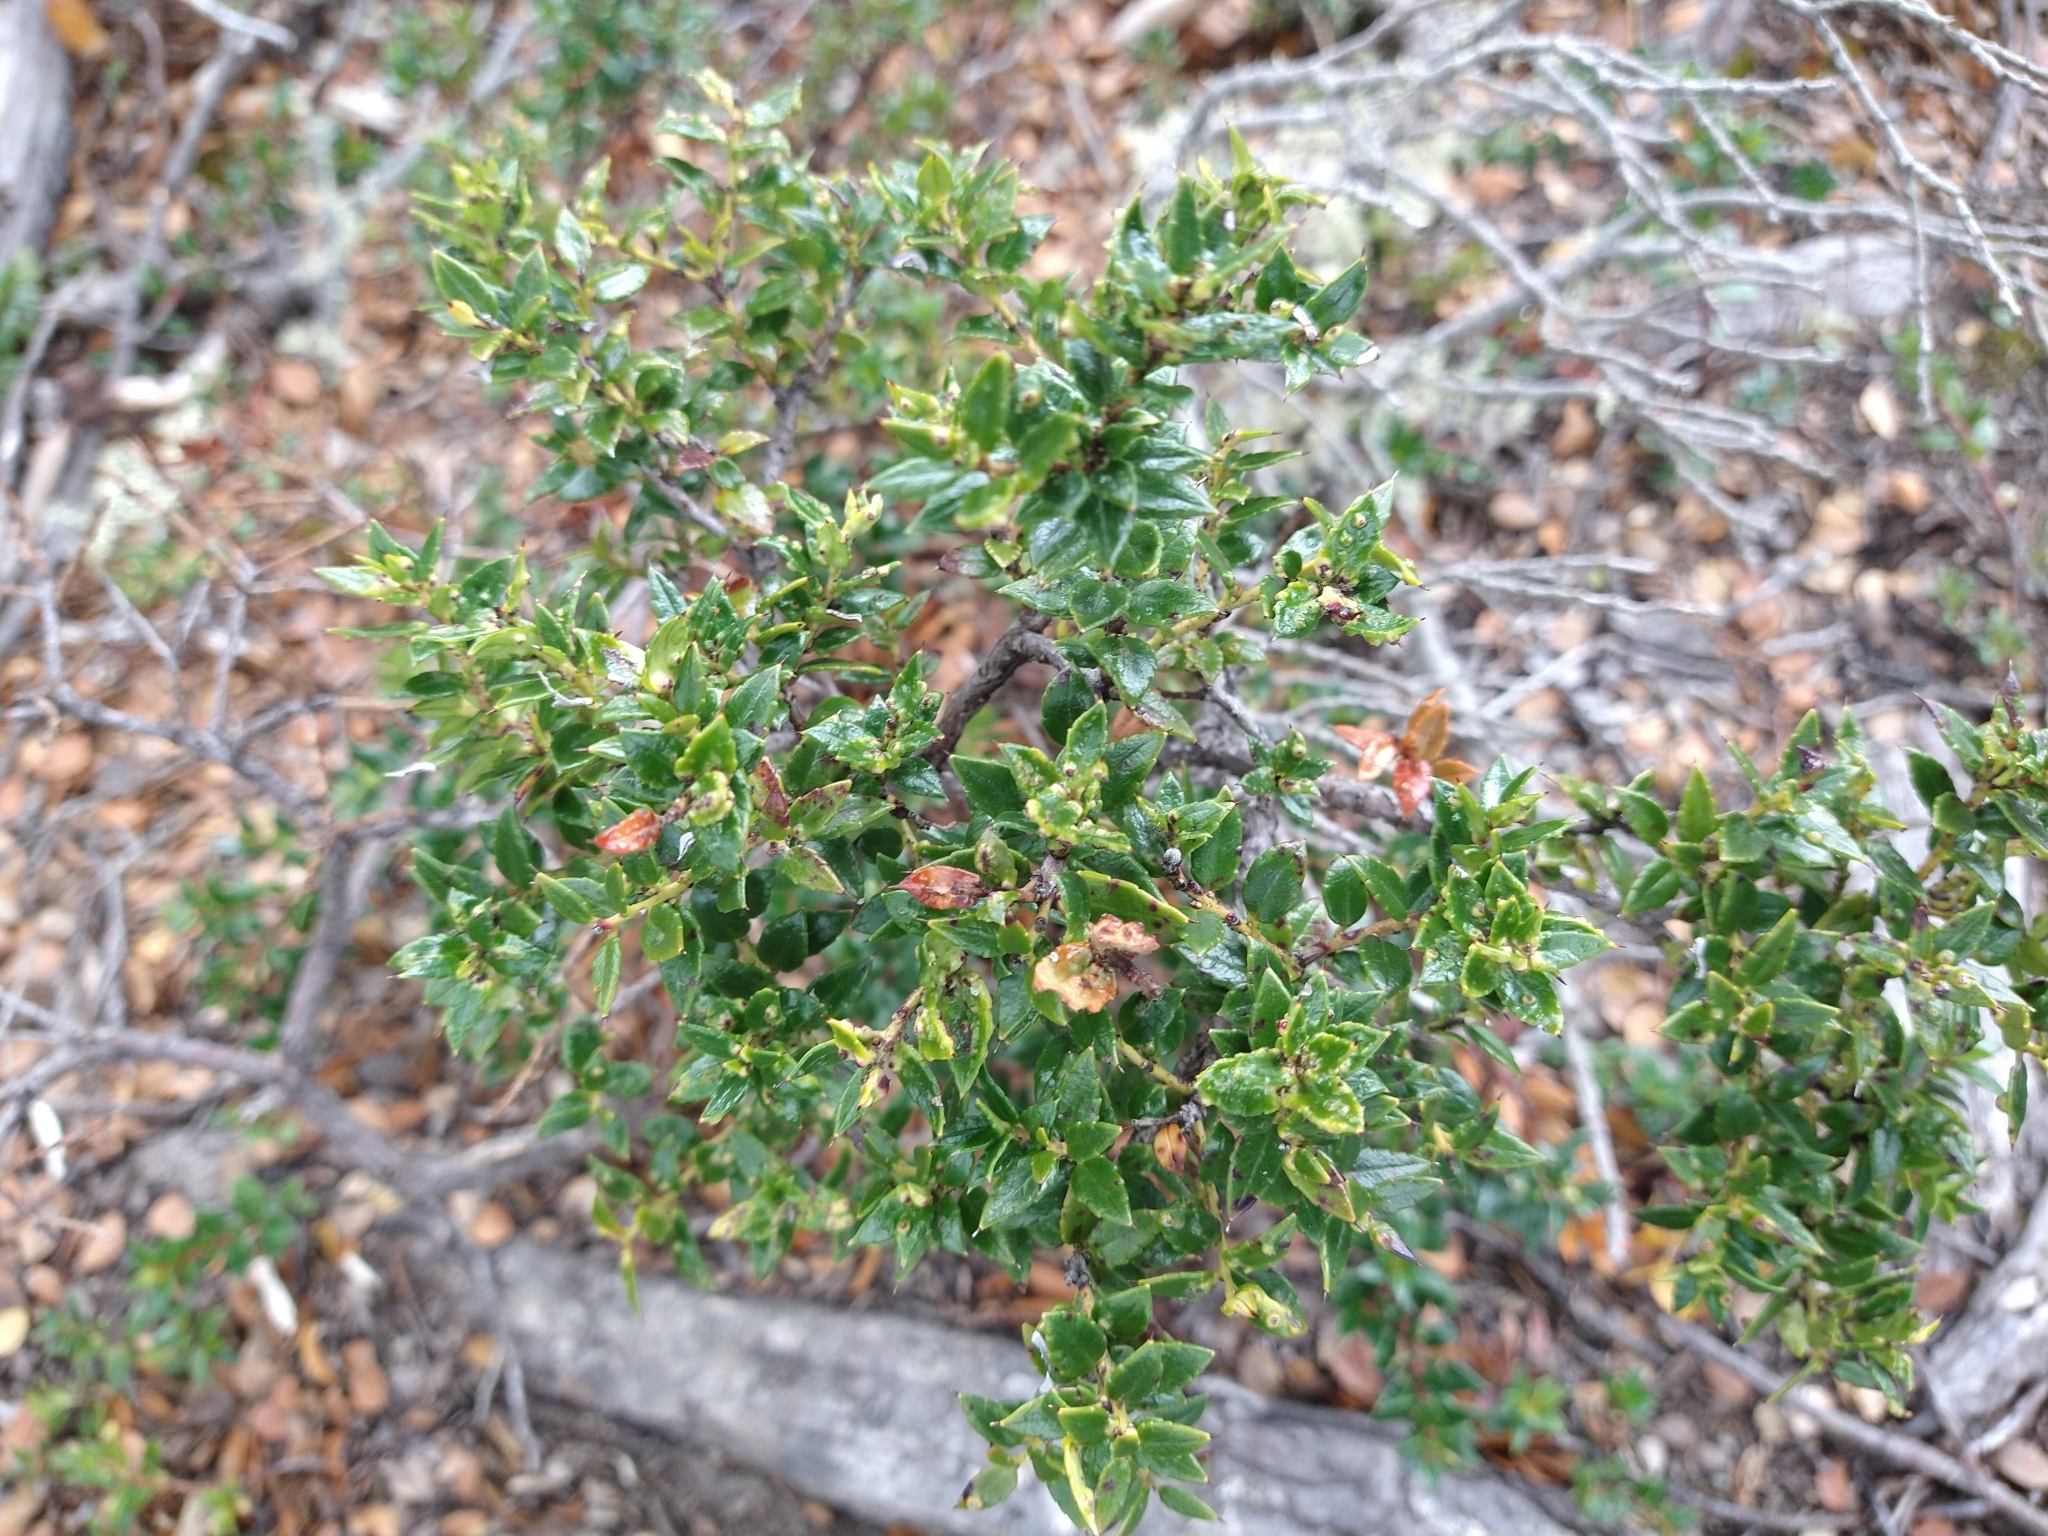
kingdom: Plantae
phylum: Tracheophyta
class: Magnoliopsida
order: Ericales
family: Ericaceae
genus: Gaultheria
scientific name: Gaultheria mucronata
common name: Prickly heath
